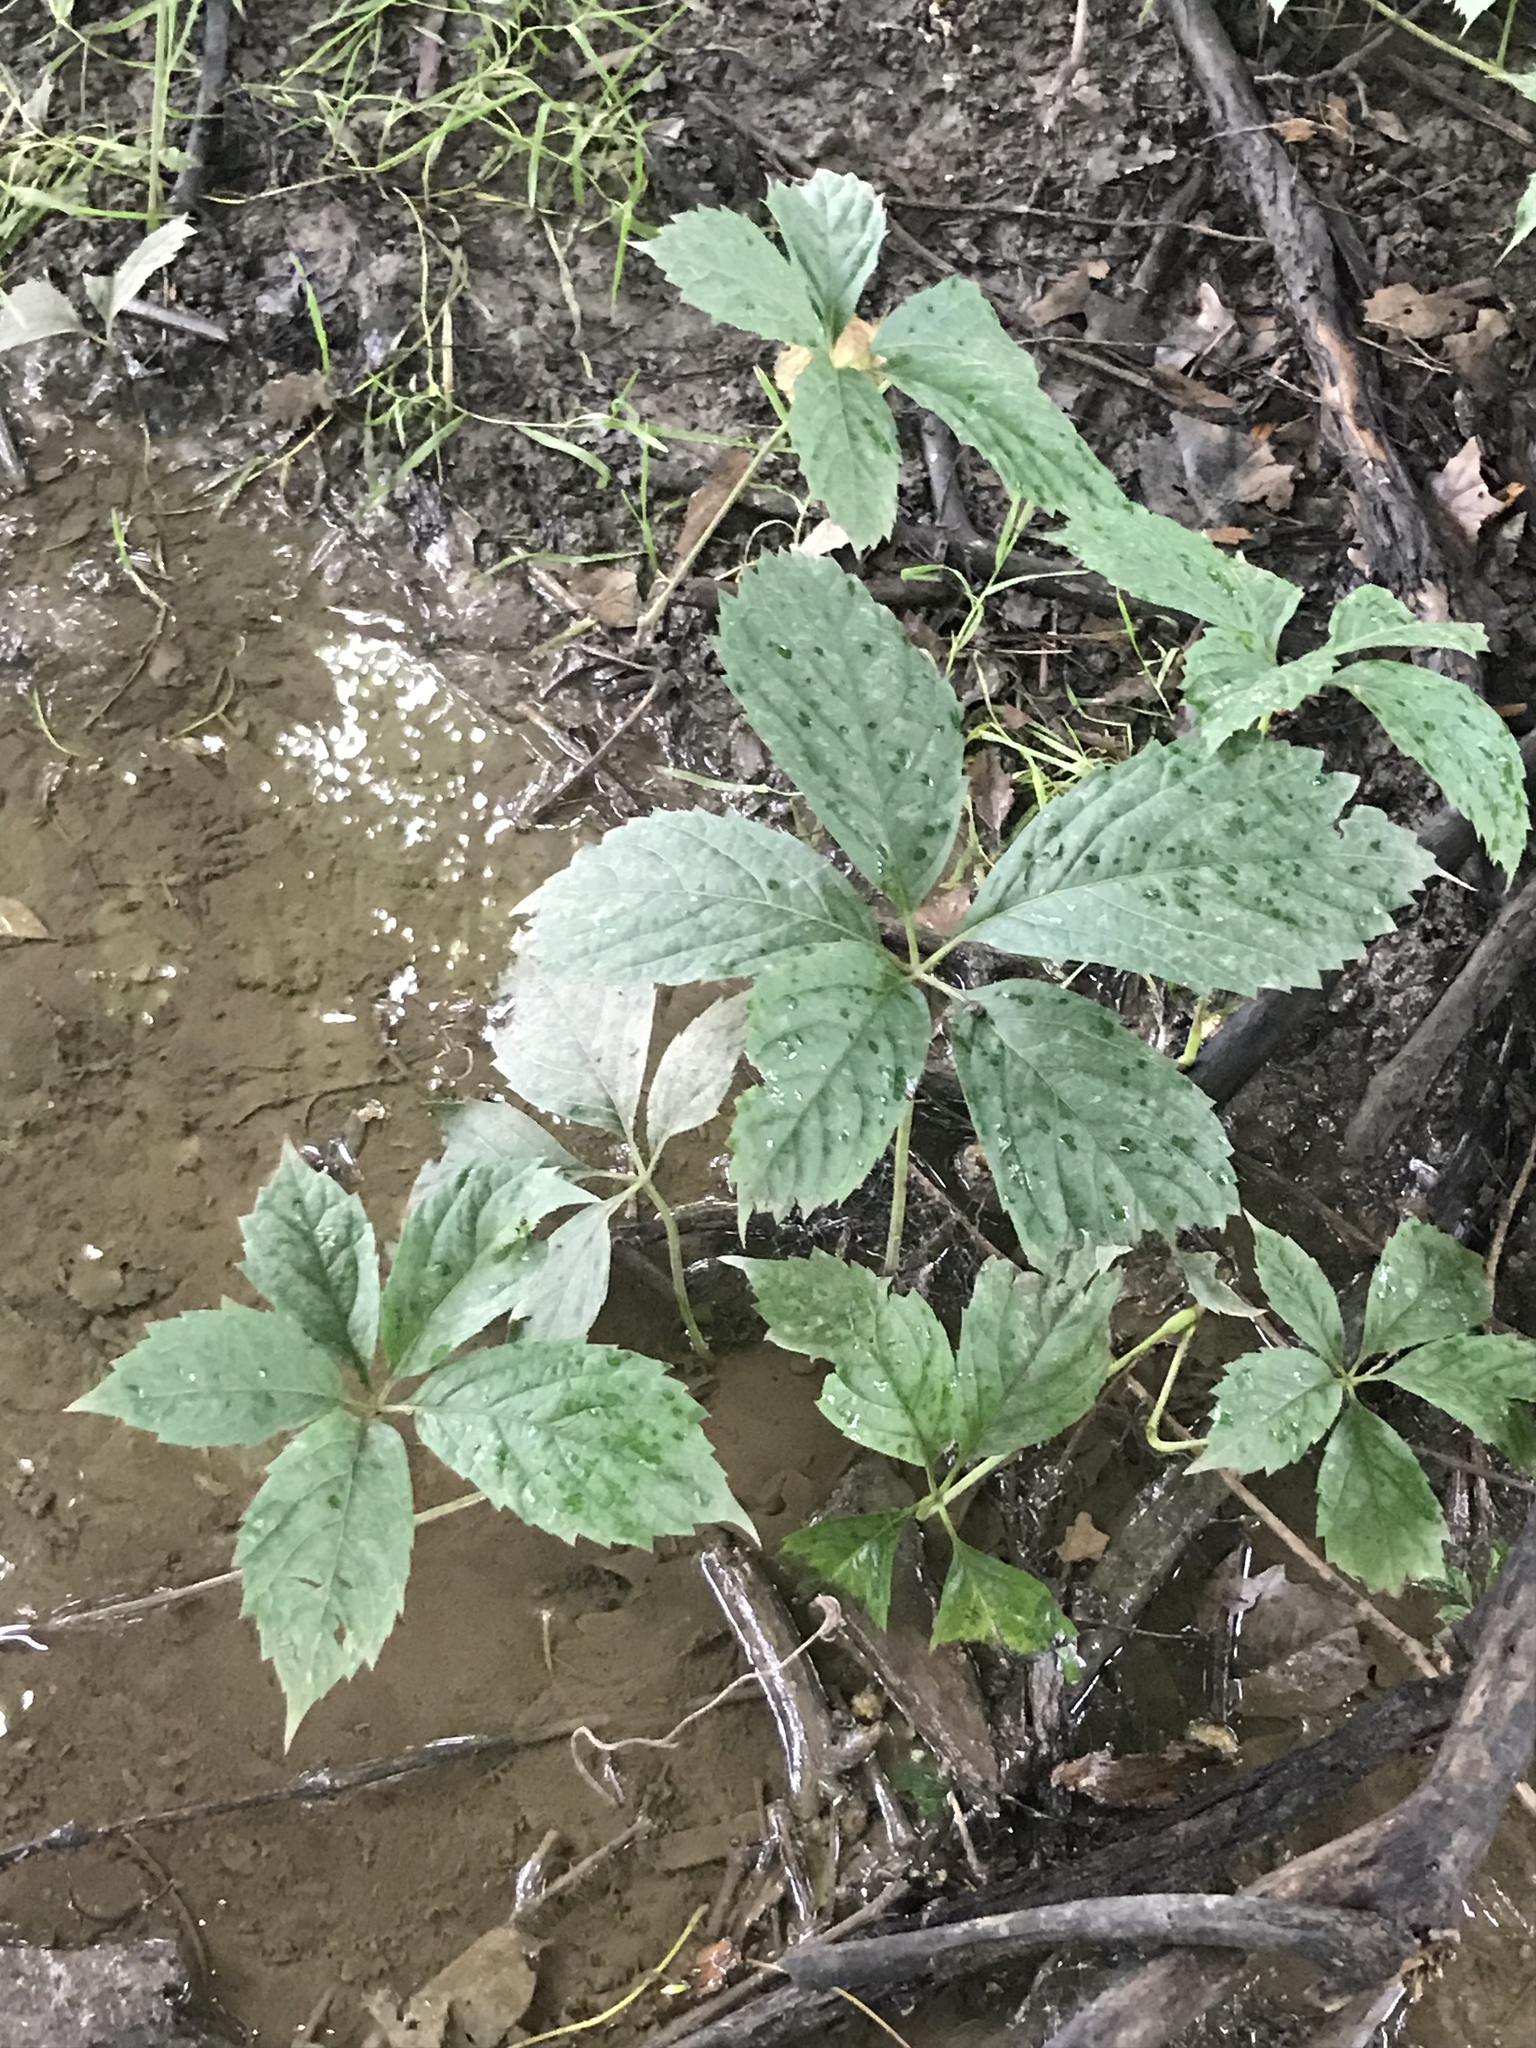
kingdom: Plantae
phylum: Tracheophyta
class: Magnoliopsida
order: Vitales
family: Vitaceae
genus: Parthenocissus
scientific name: Parthenocissus quinquefolia
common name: Virginia-creeper
